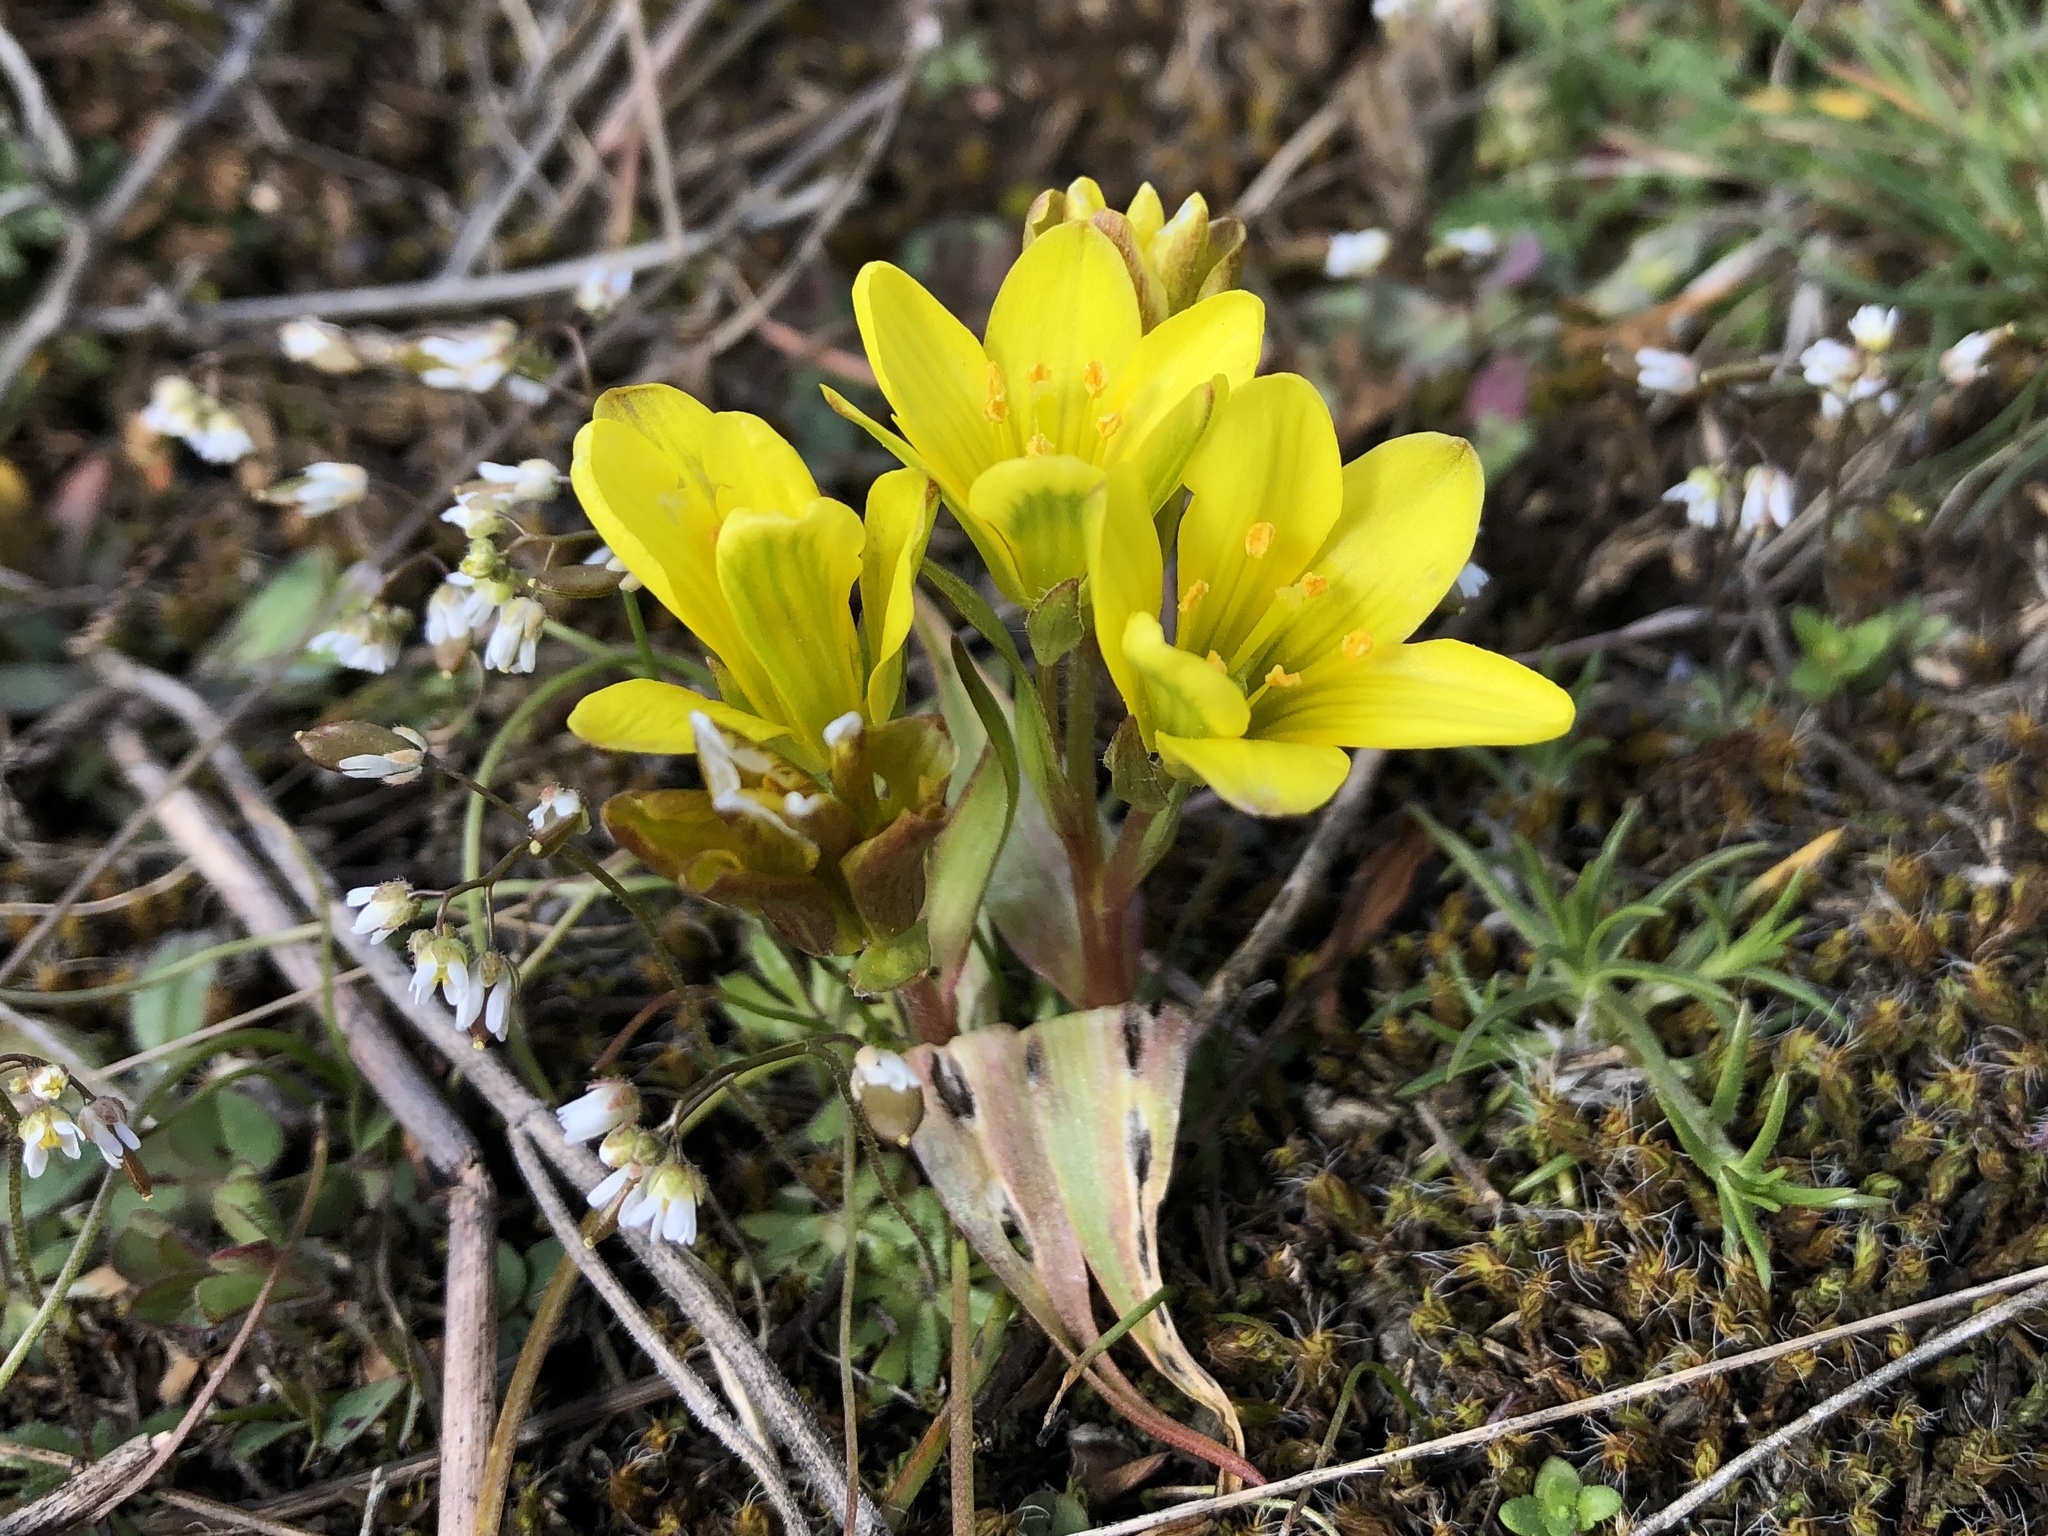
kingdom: Plantae
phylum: Tracheophyta
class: Liliopsida
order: Liliales
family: Liliaceae
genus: Gagea
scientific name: Gagea bohemica
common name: Early star-of-bethlehem
